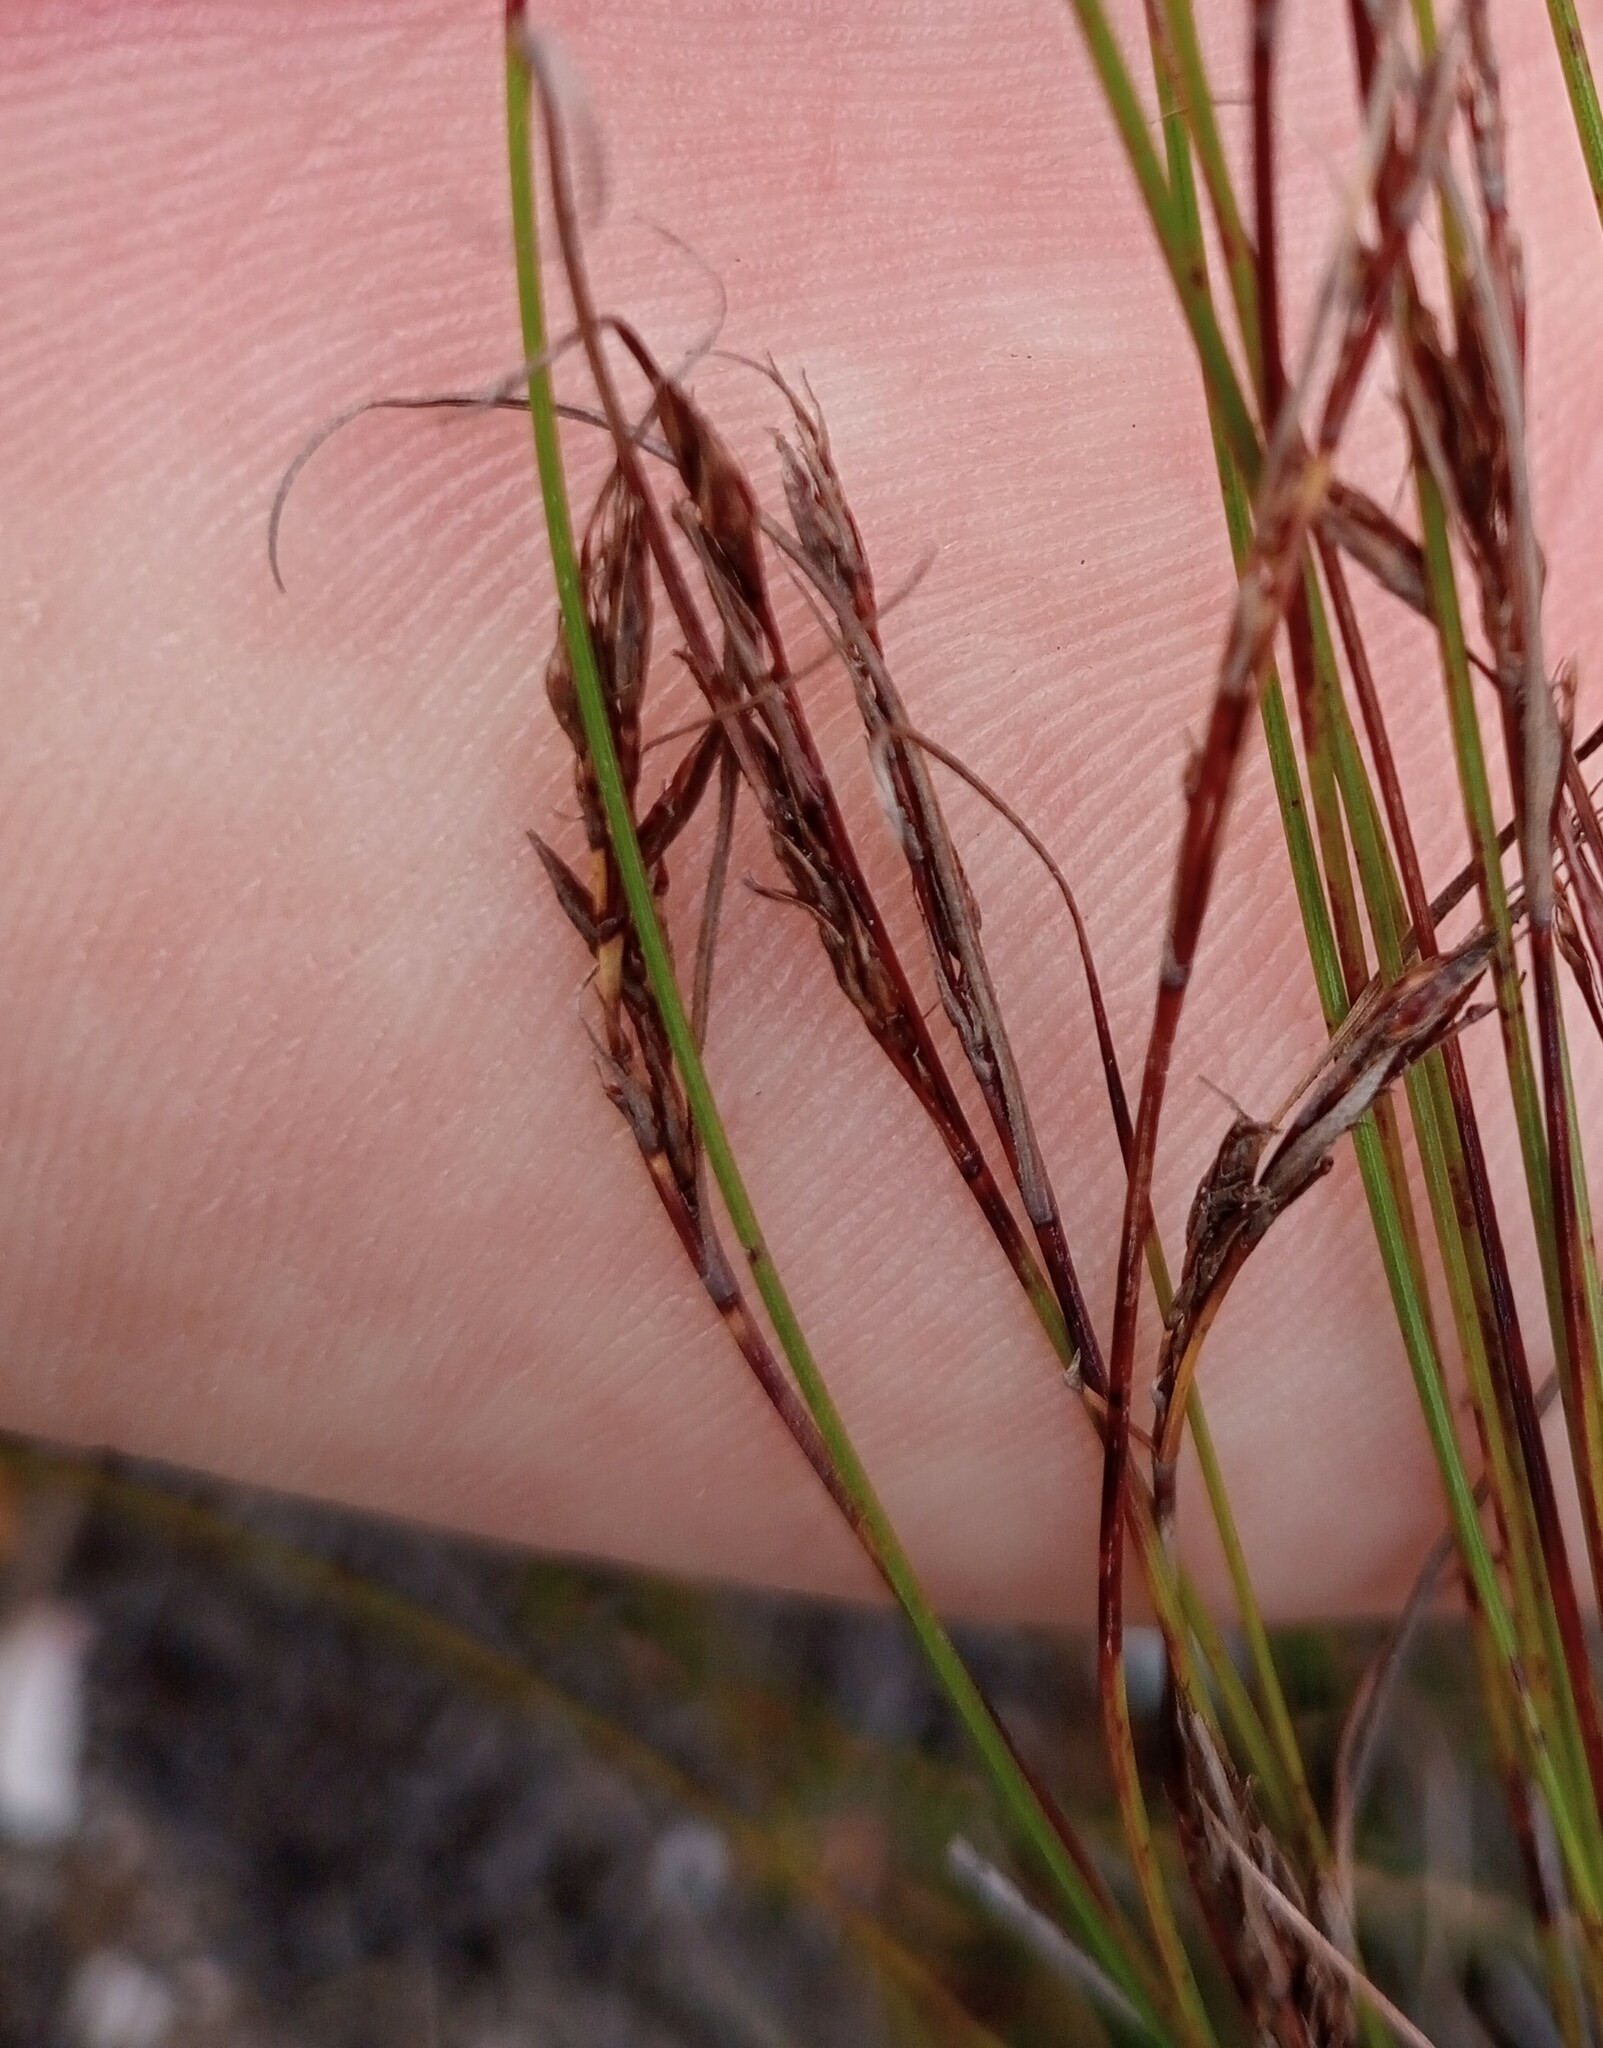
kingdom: Plantae
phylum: Tracheophyta
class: Liliopsida
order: Poales
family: Cyperaceae
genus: Schoenus
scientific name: Schoenus quartziticus
